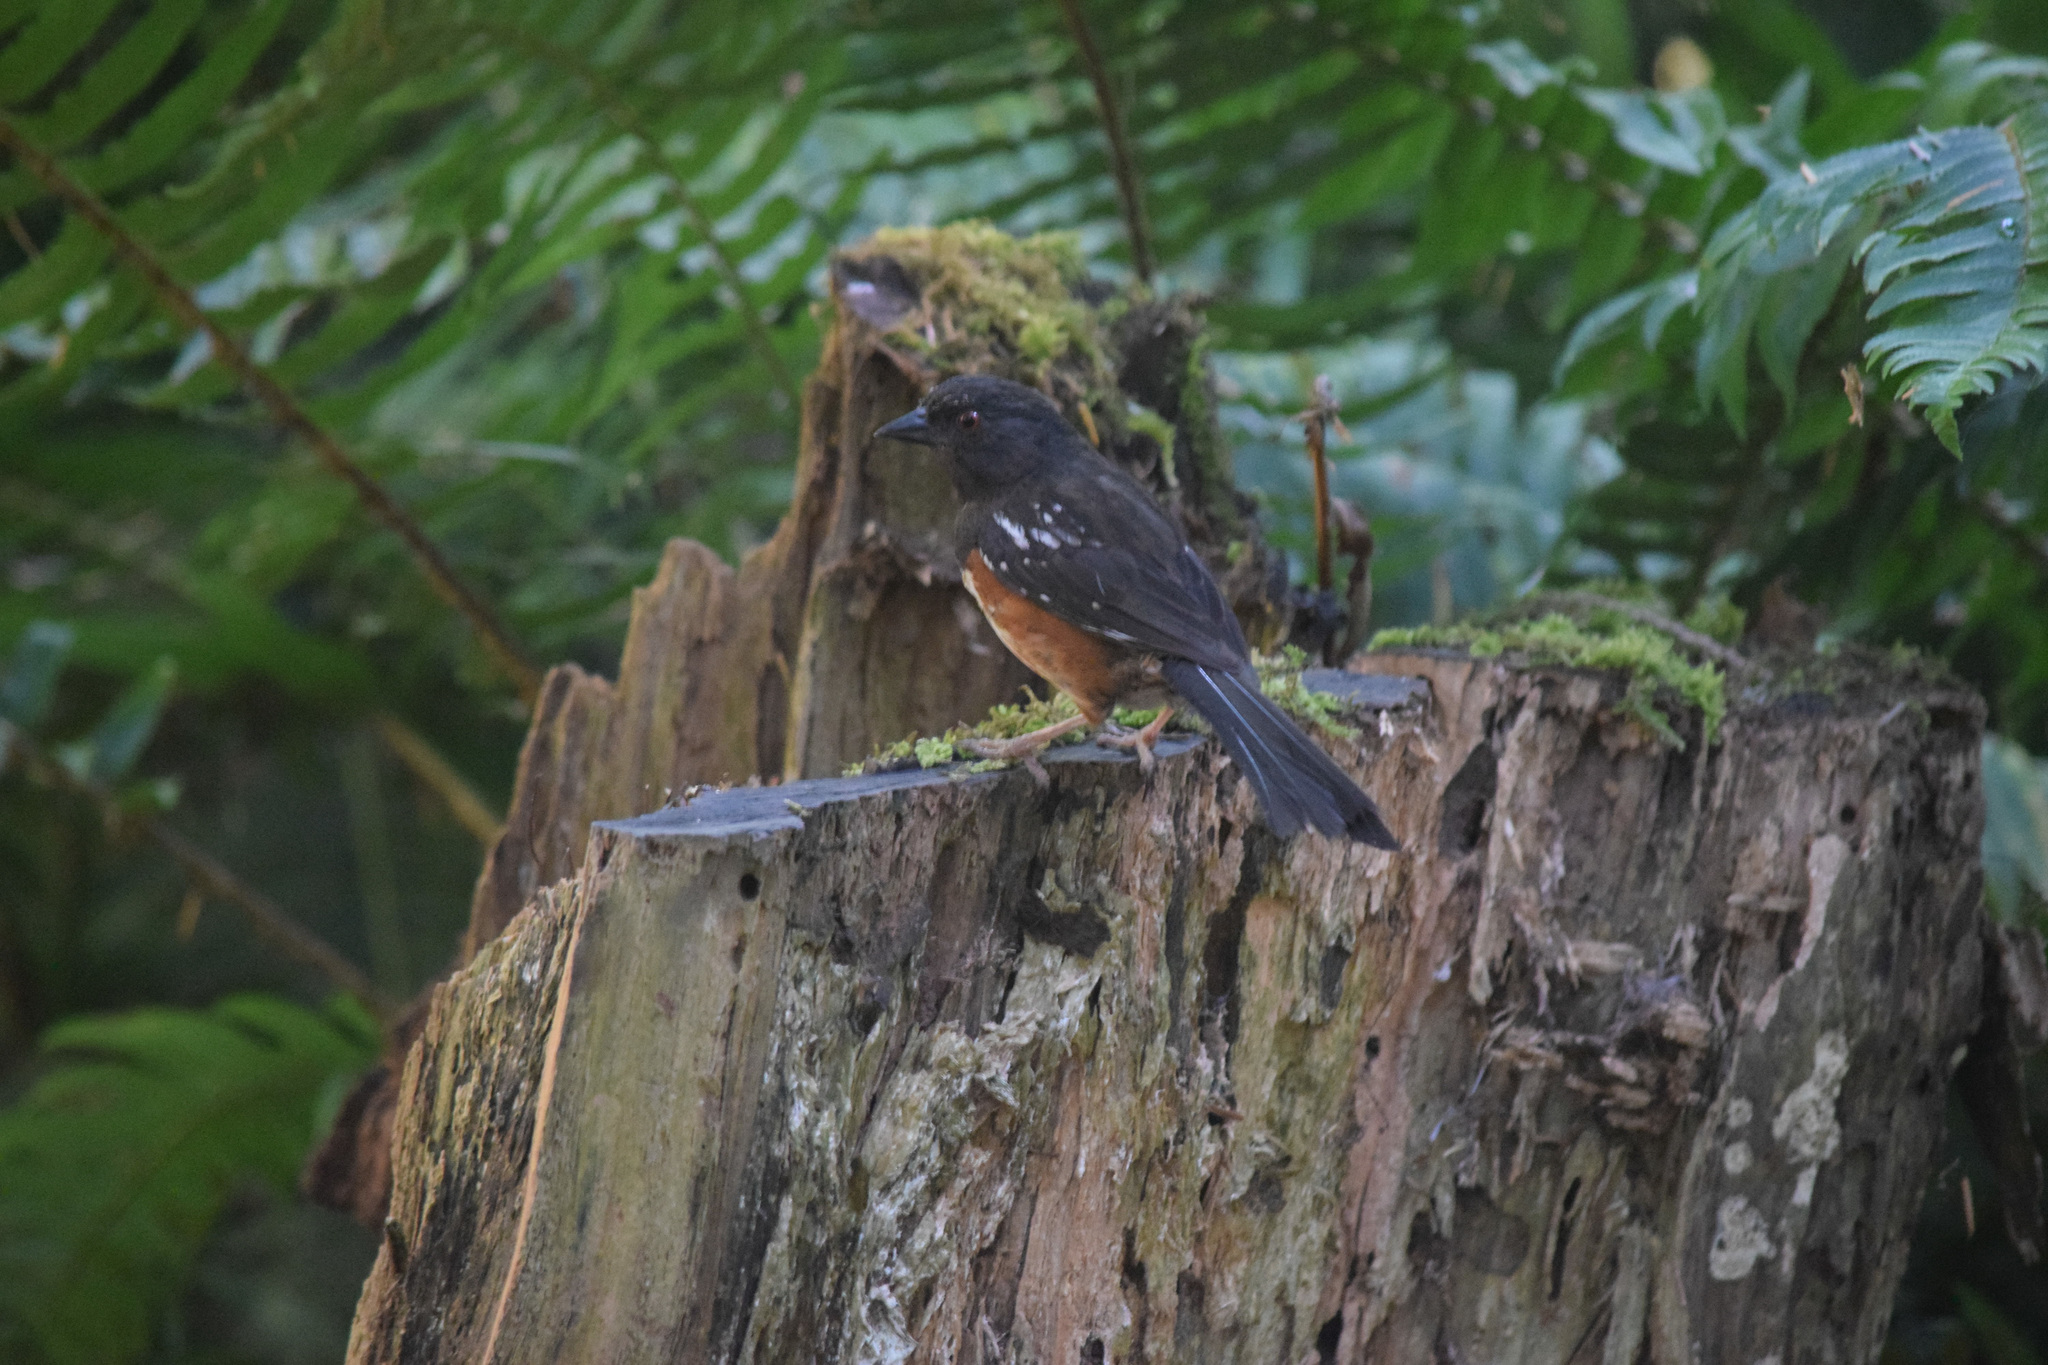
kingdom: Animalia
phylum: Chordata
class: Aves
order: Passeriformes
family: Passerellidae
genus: Pipilo
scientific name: Pipilo maculatus
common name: Spotted towhee
